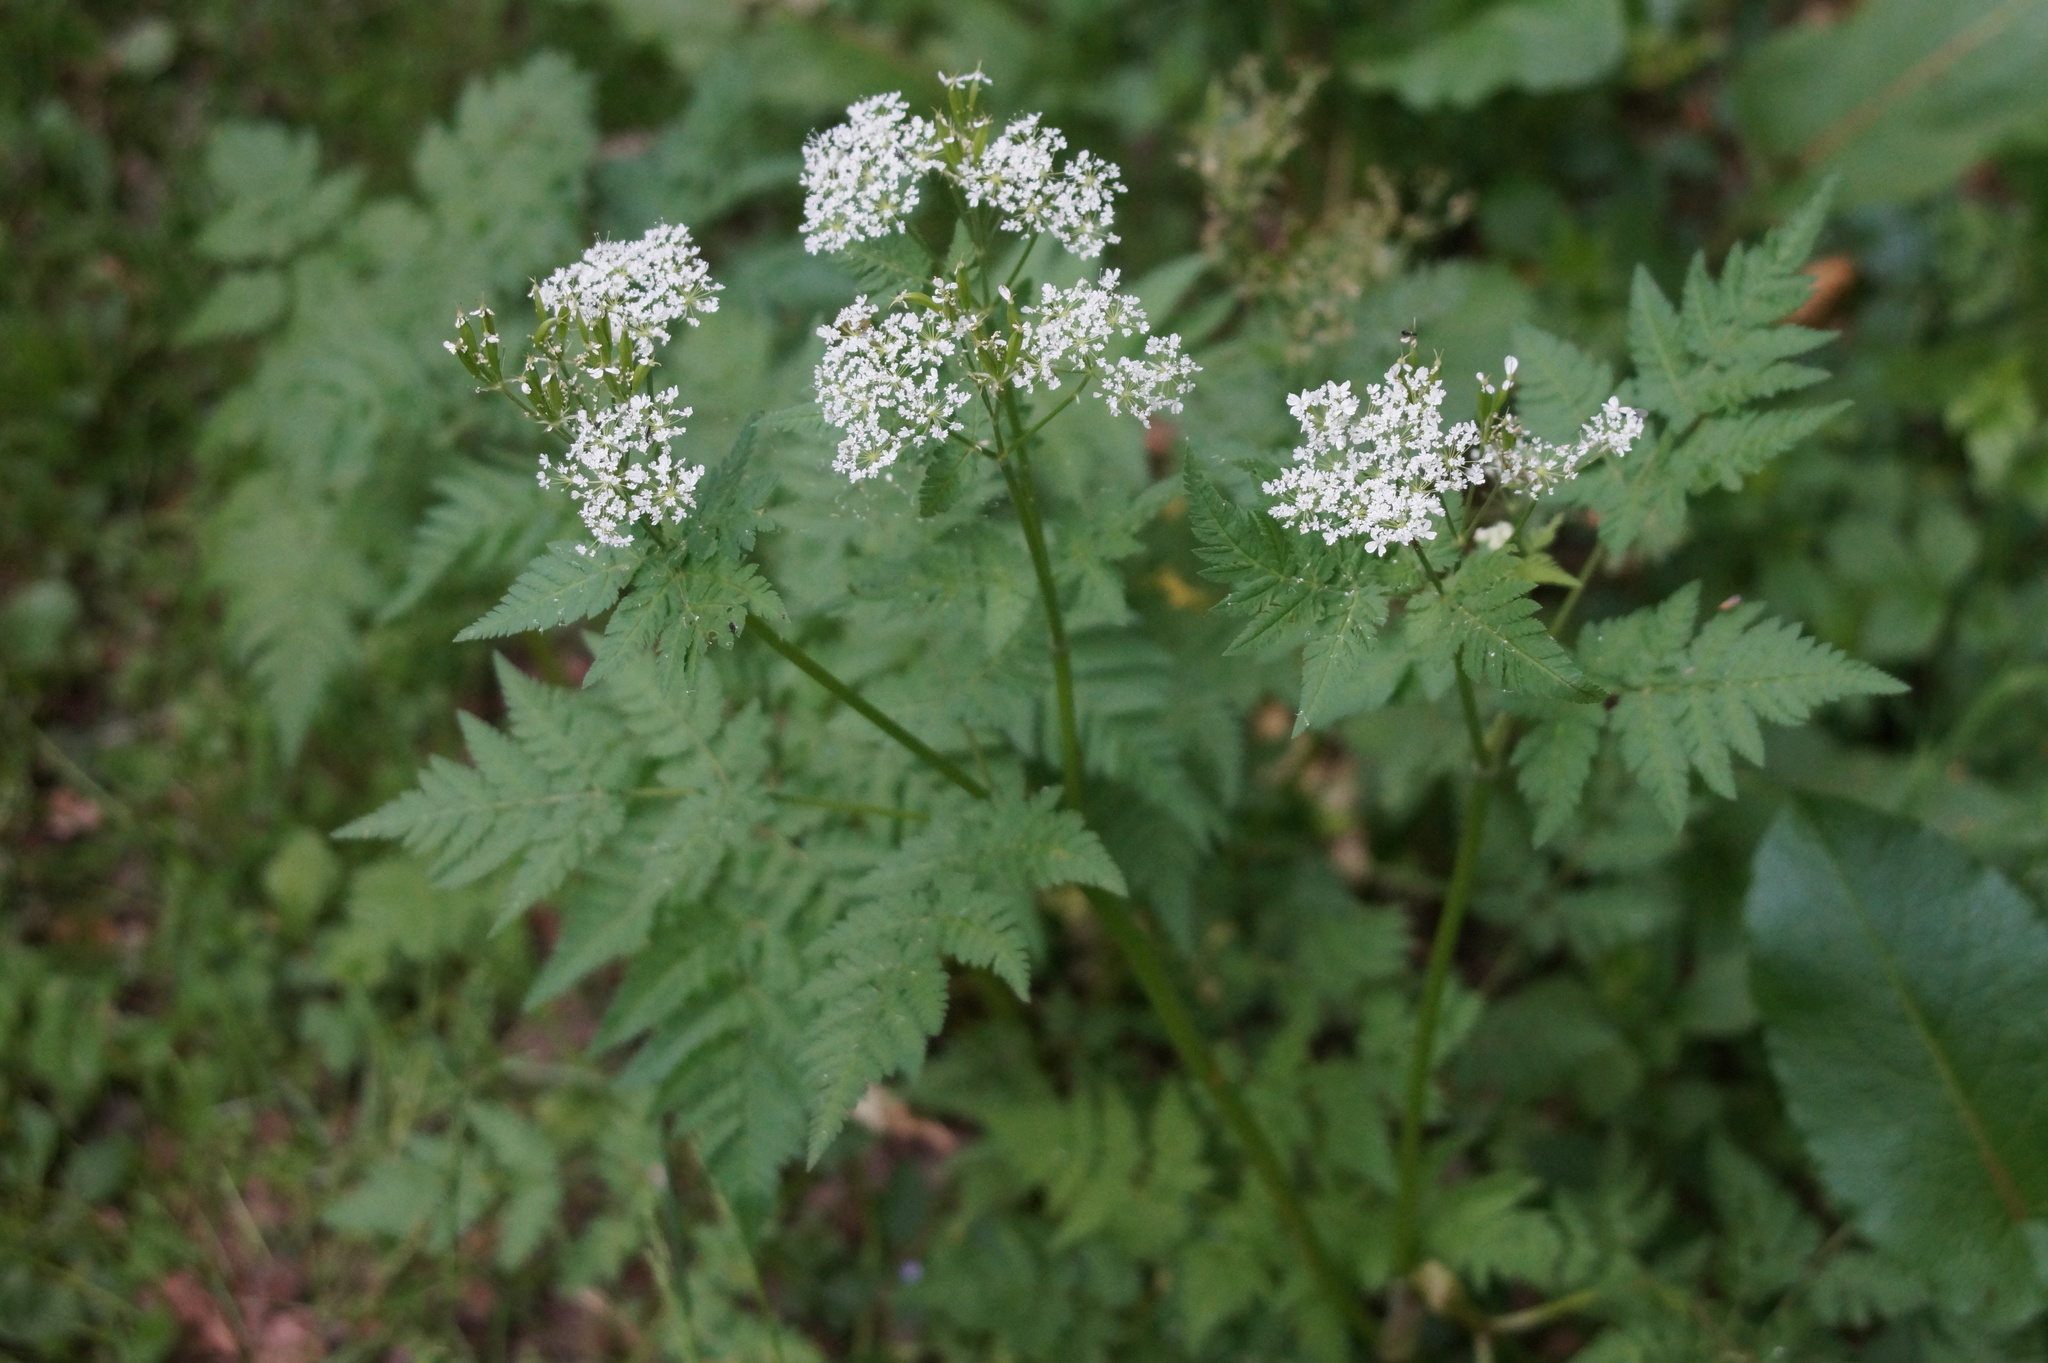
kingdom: Plantae
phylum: Tracheophyta
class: Magnoliopsida
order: Apiales
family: Apiaceae
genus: Myrrhis
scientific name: Myrrhis odorata
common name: Sweet cicely
